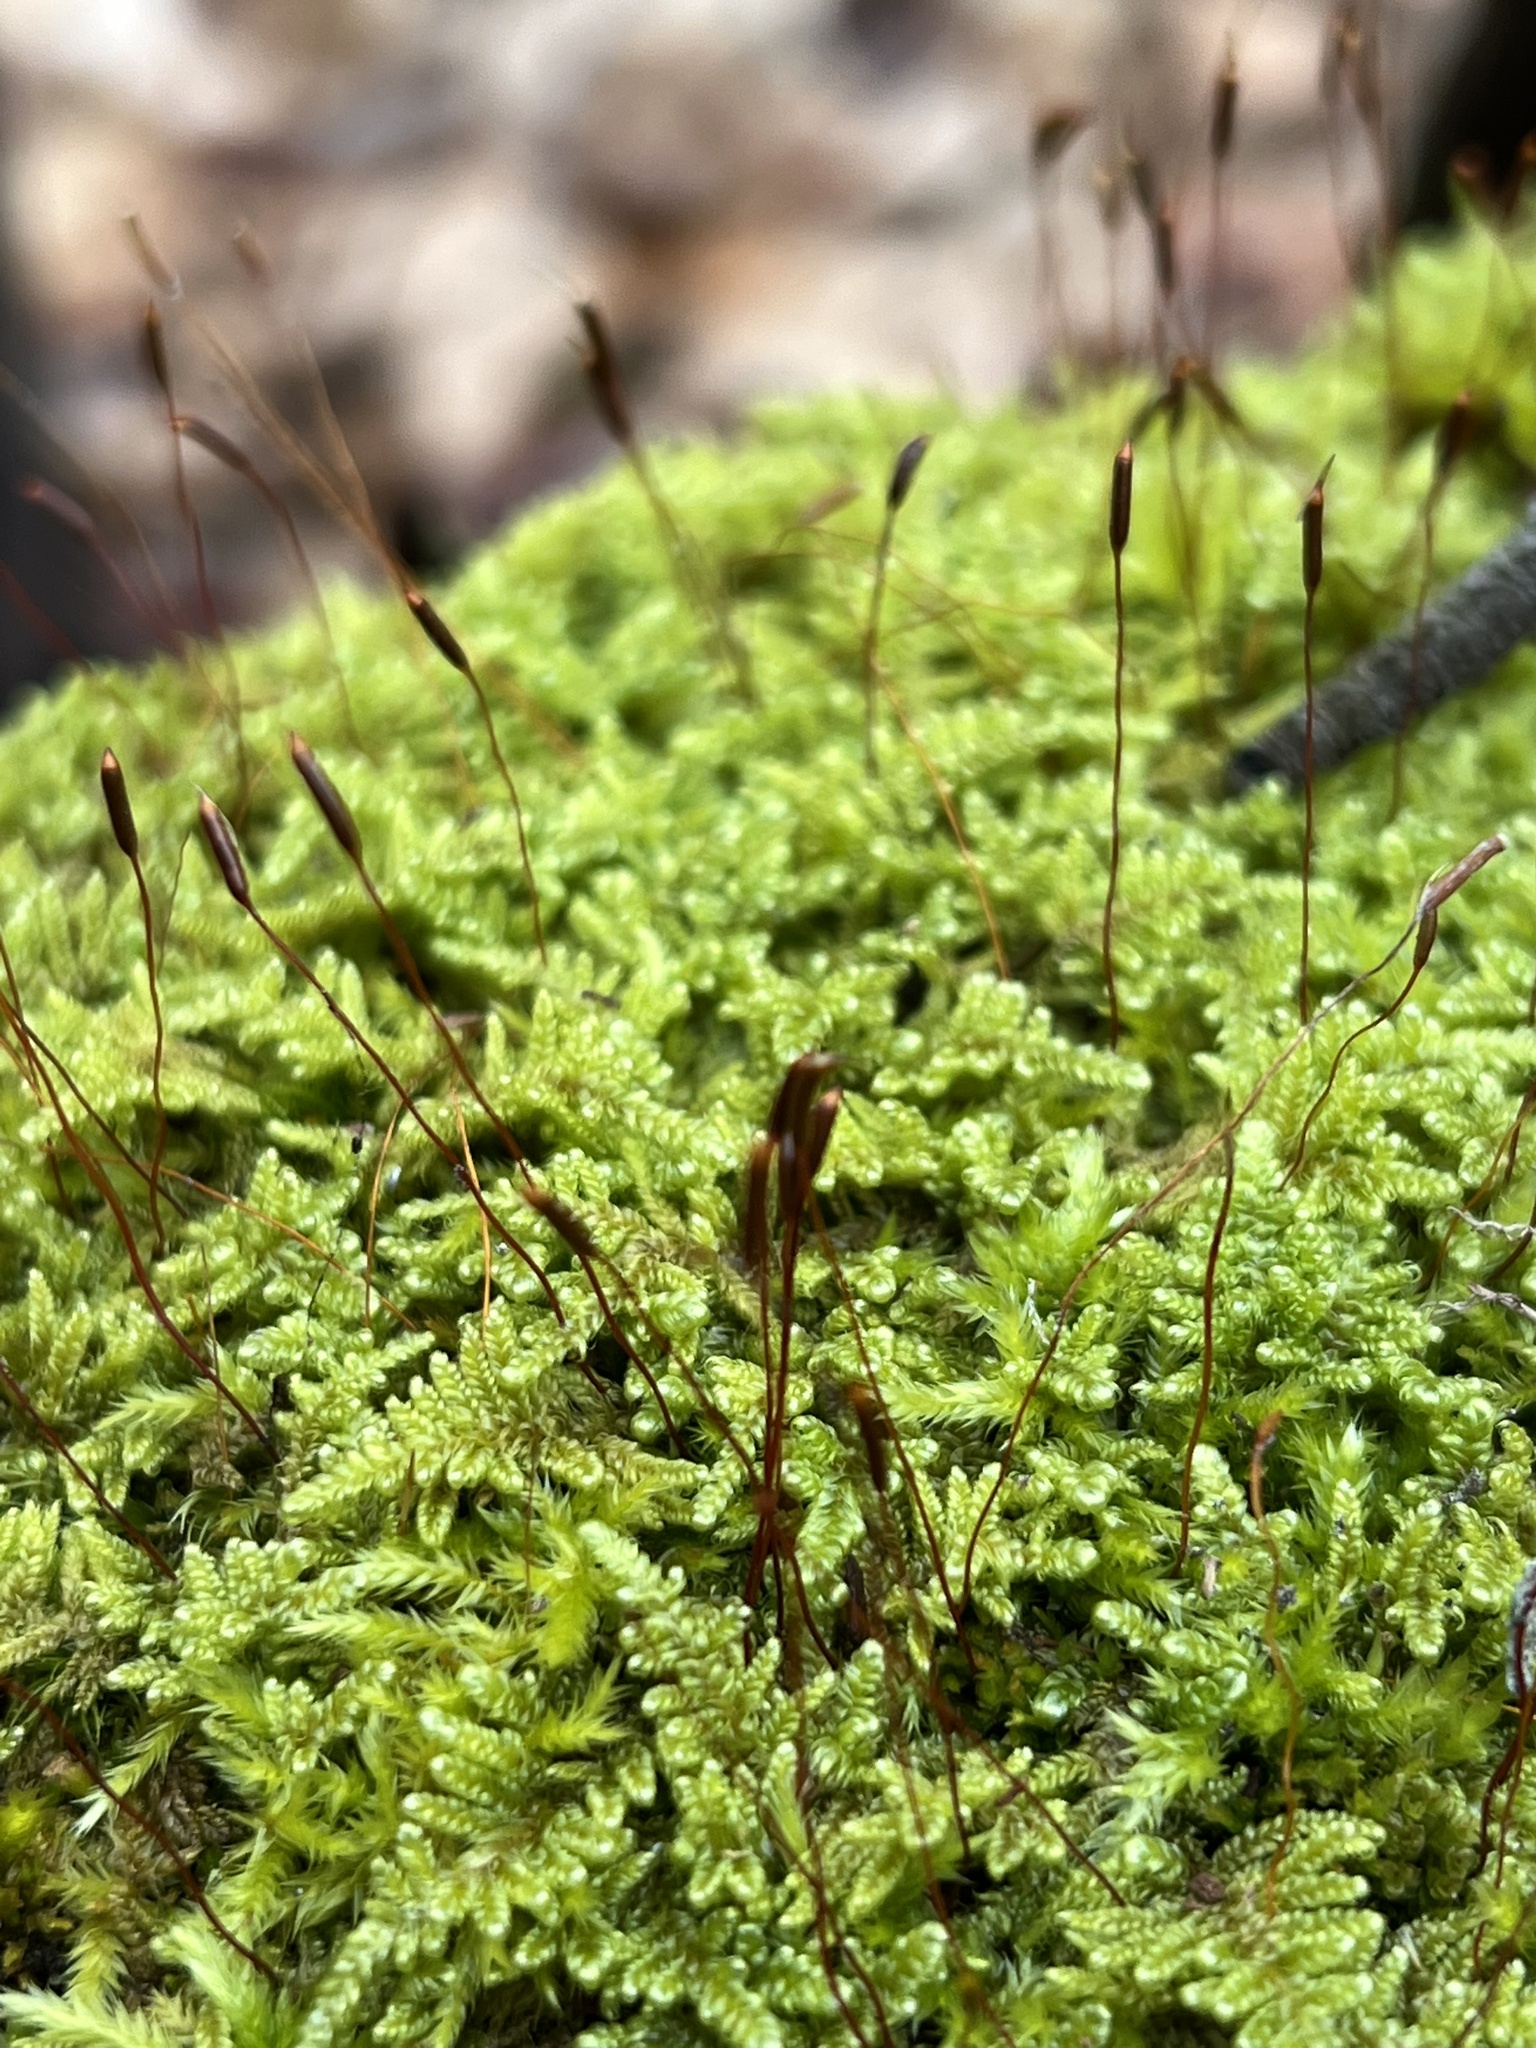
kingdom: Plantae
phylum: Bryophyta
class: Bryopsida
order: Hypnales
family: Callicladiaceae
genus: Callicladium
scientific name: Callicladium imponens
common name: Brocade moss
